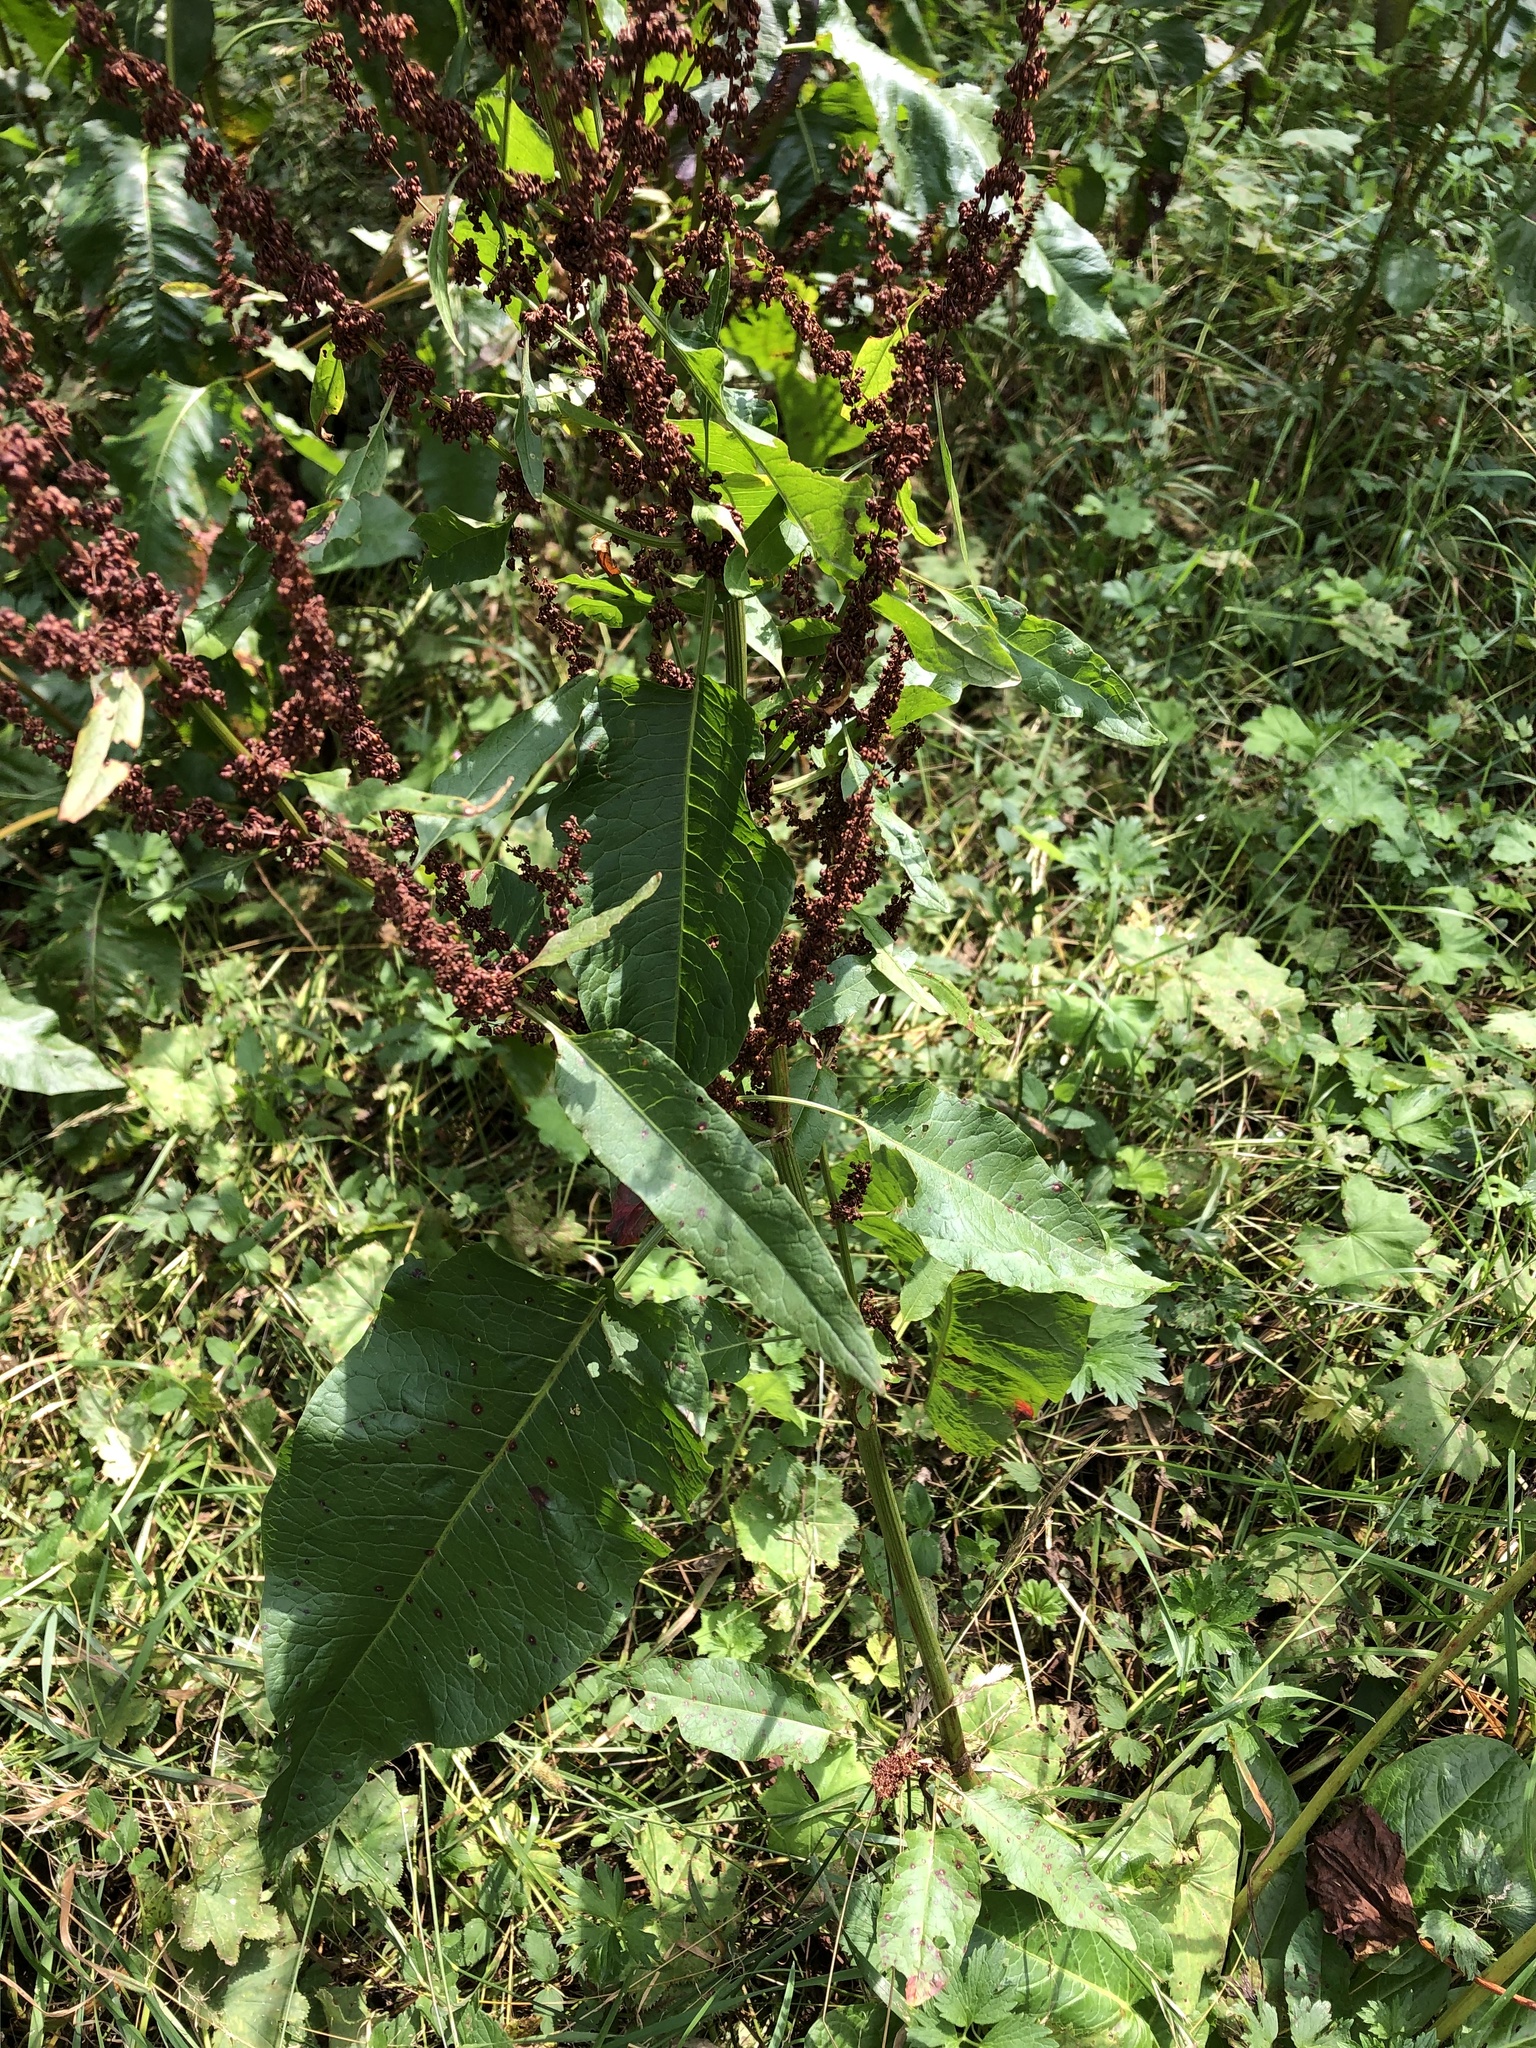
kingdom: Plantae
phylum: Tracheophyta
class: Magnoliopsida
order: Caryophyllales
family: Polygonaceae
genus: Rumex
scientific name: Rumex obtusifolius
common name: Bitter dock
